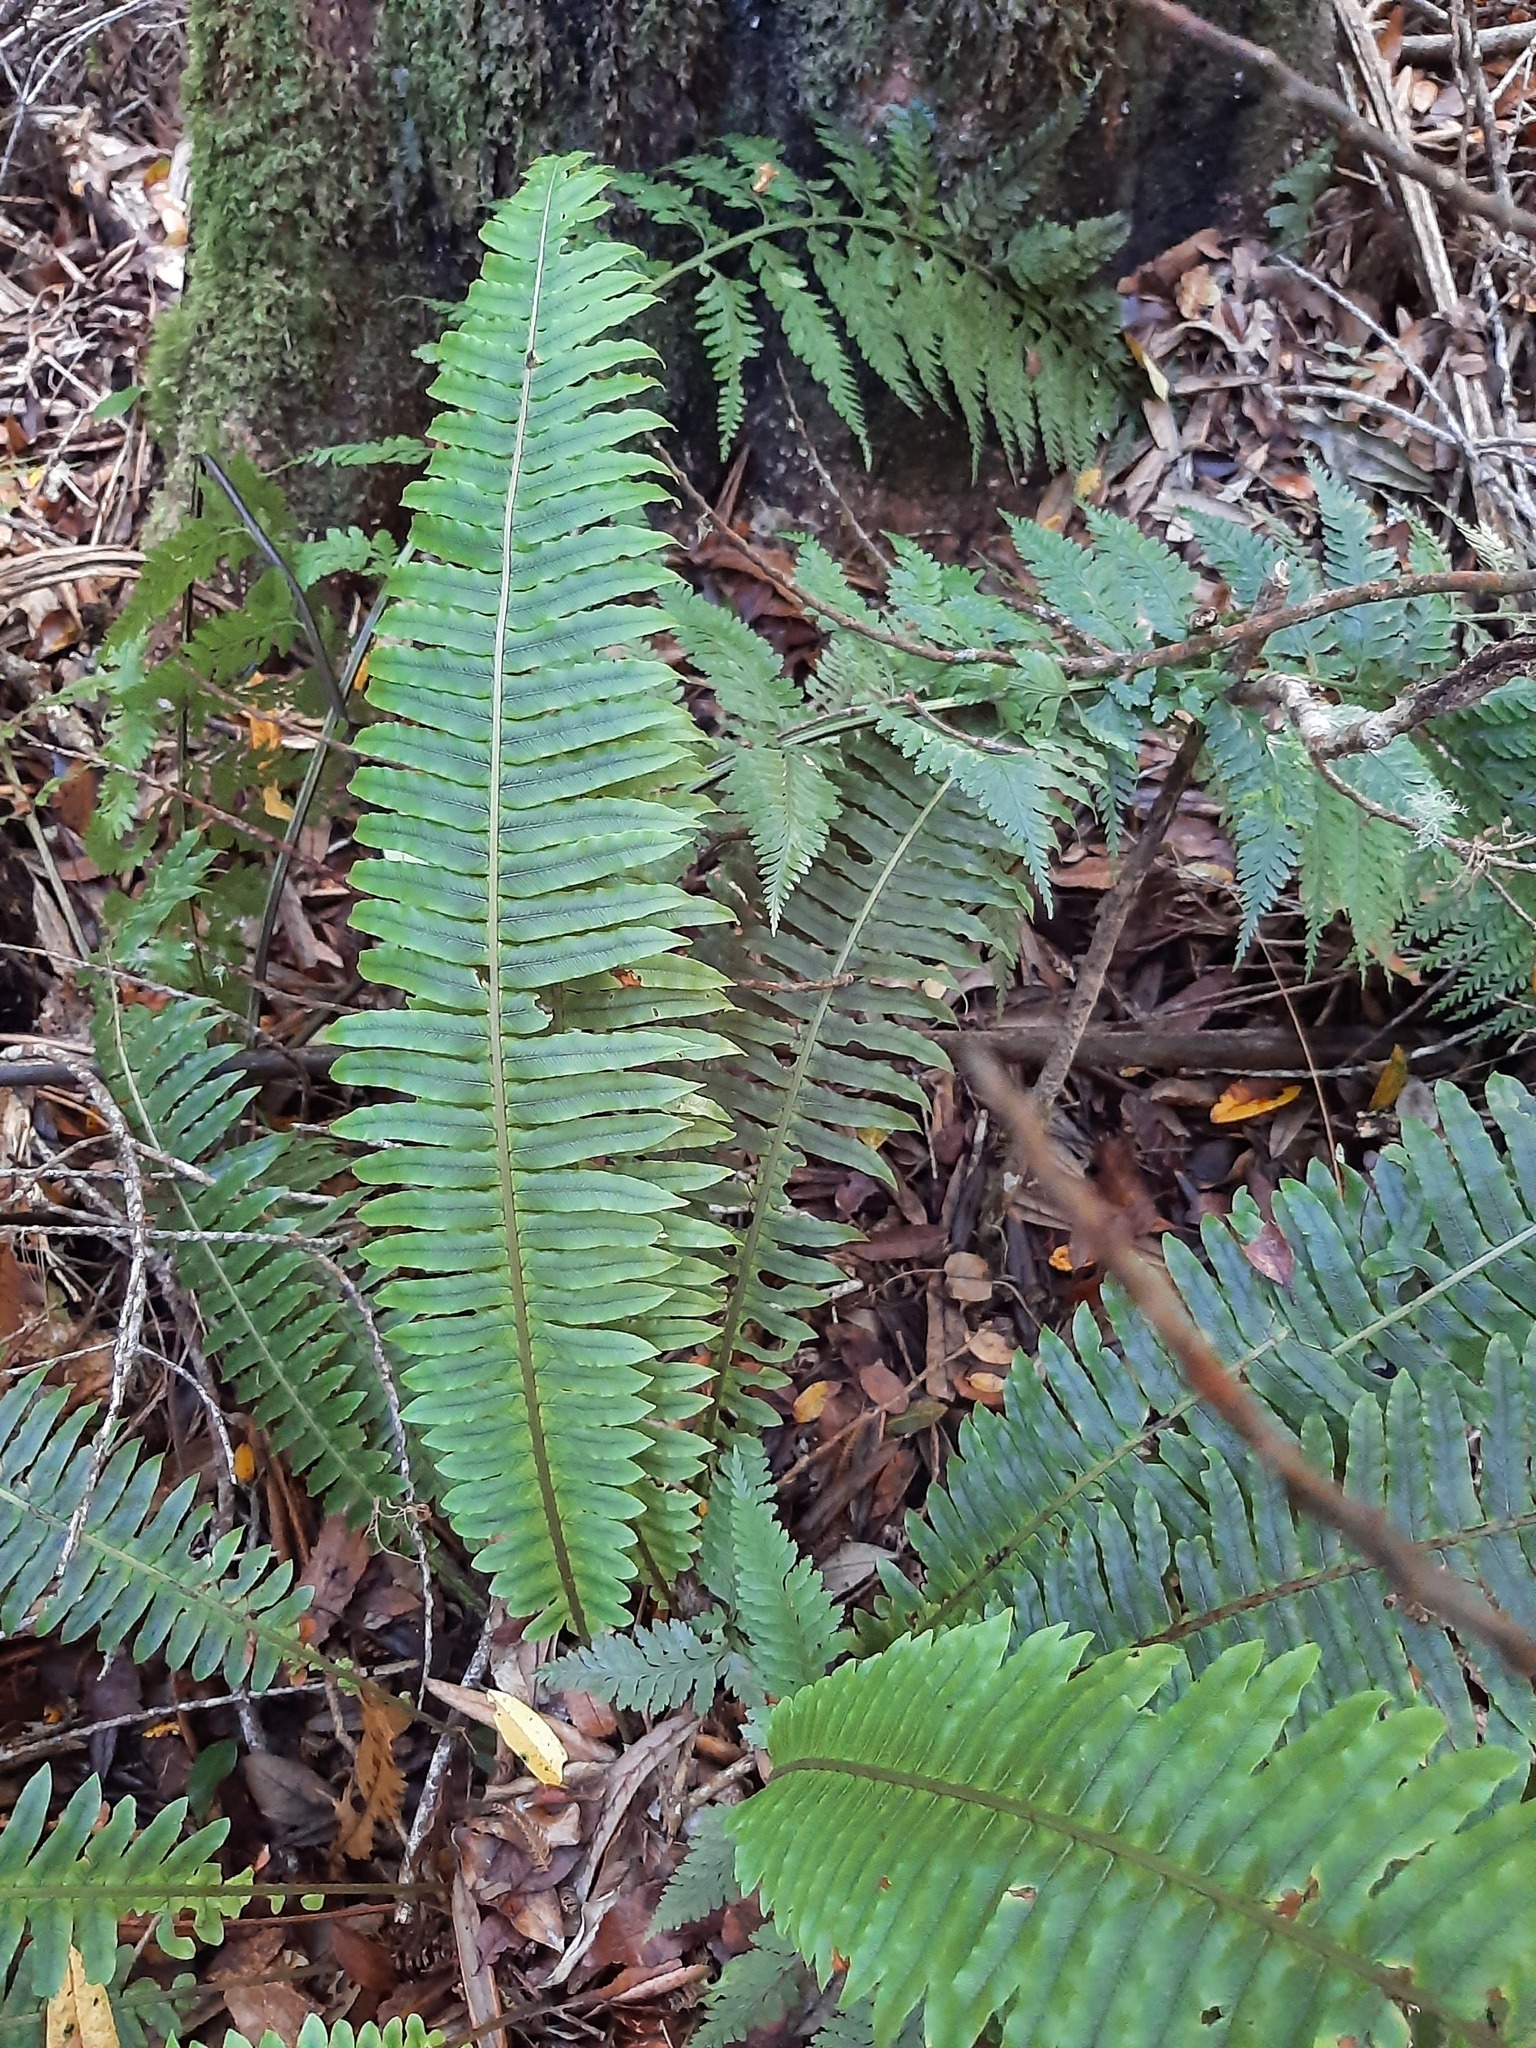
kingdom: Plantae
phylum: Tracheophyta
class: Polypodiopsida
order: Polypodiales
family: Blechnaceae
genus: Lomaria
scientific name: Lomaria discolor
